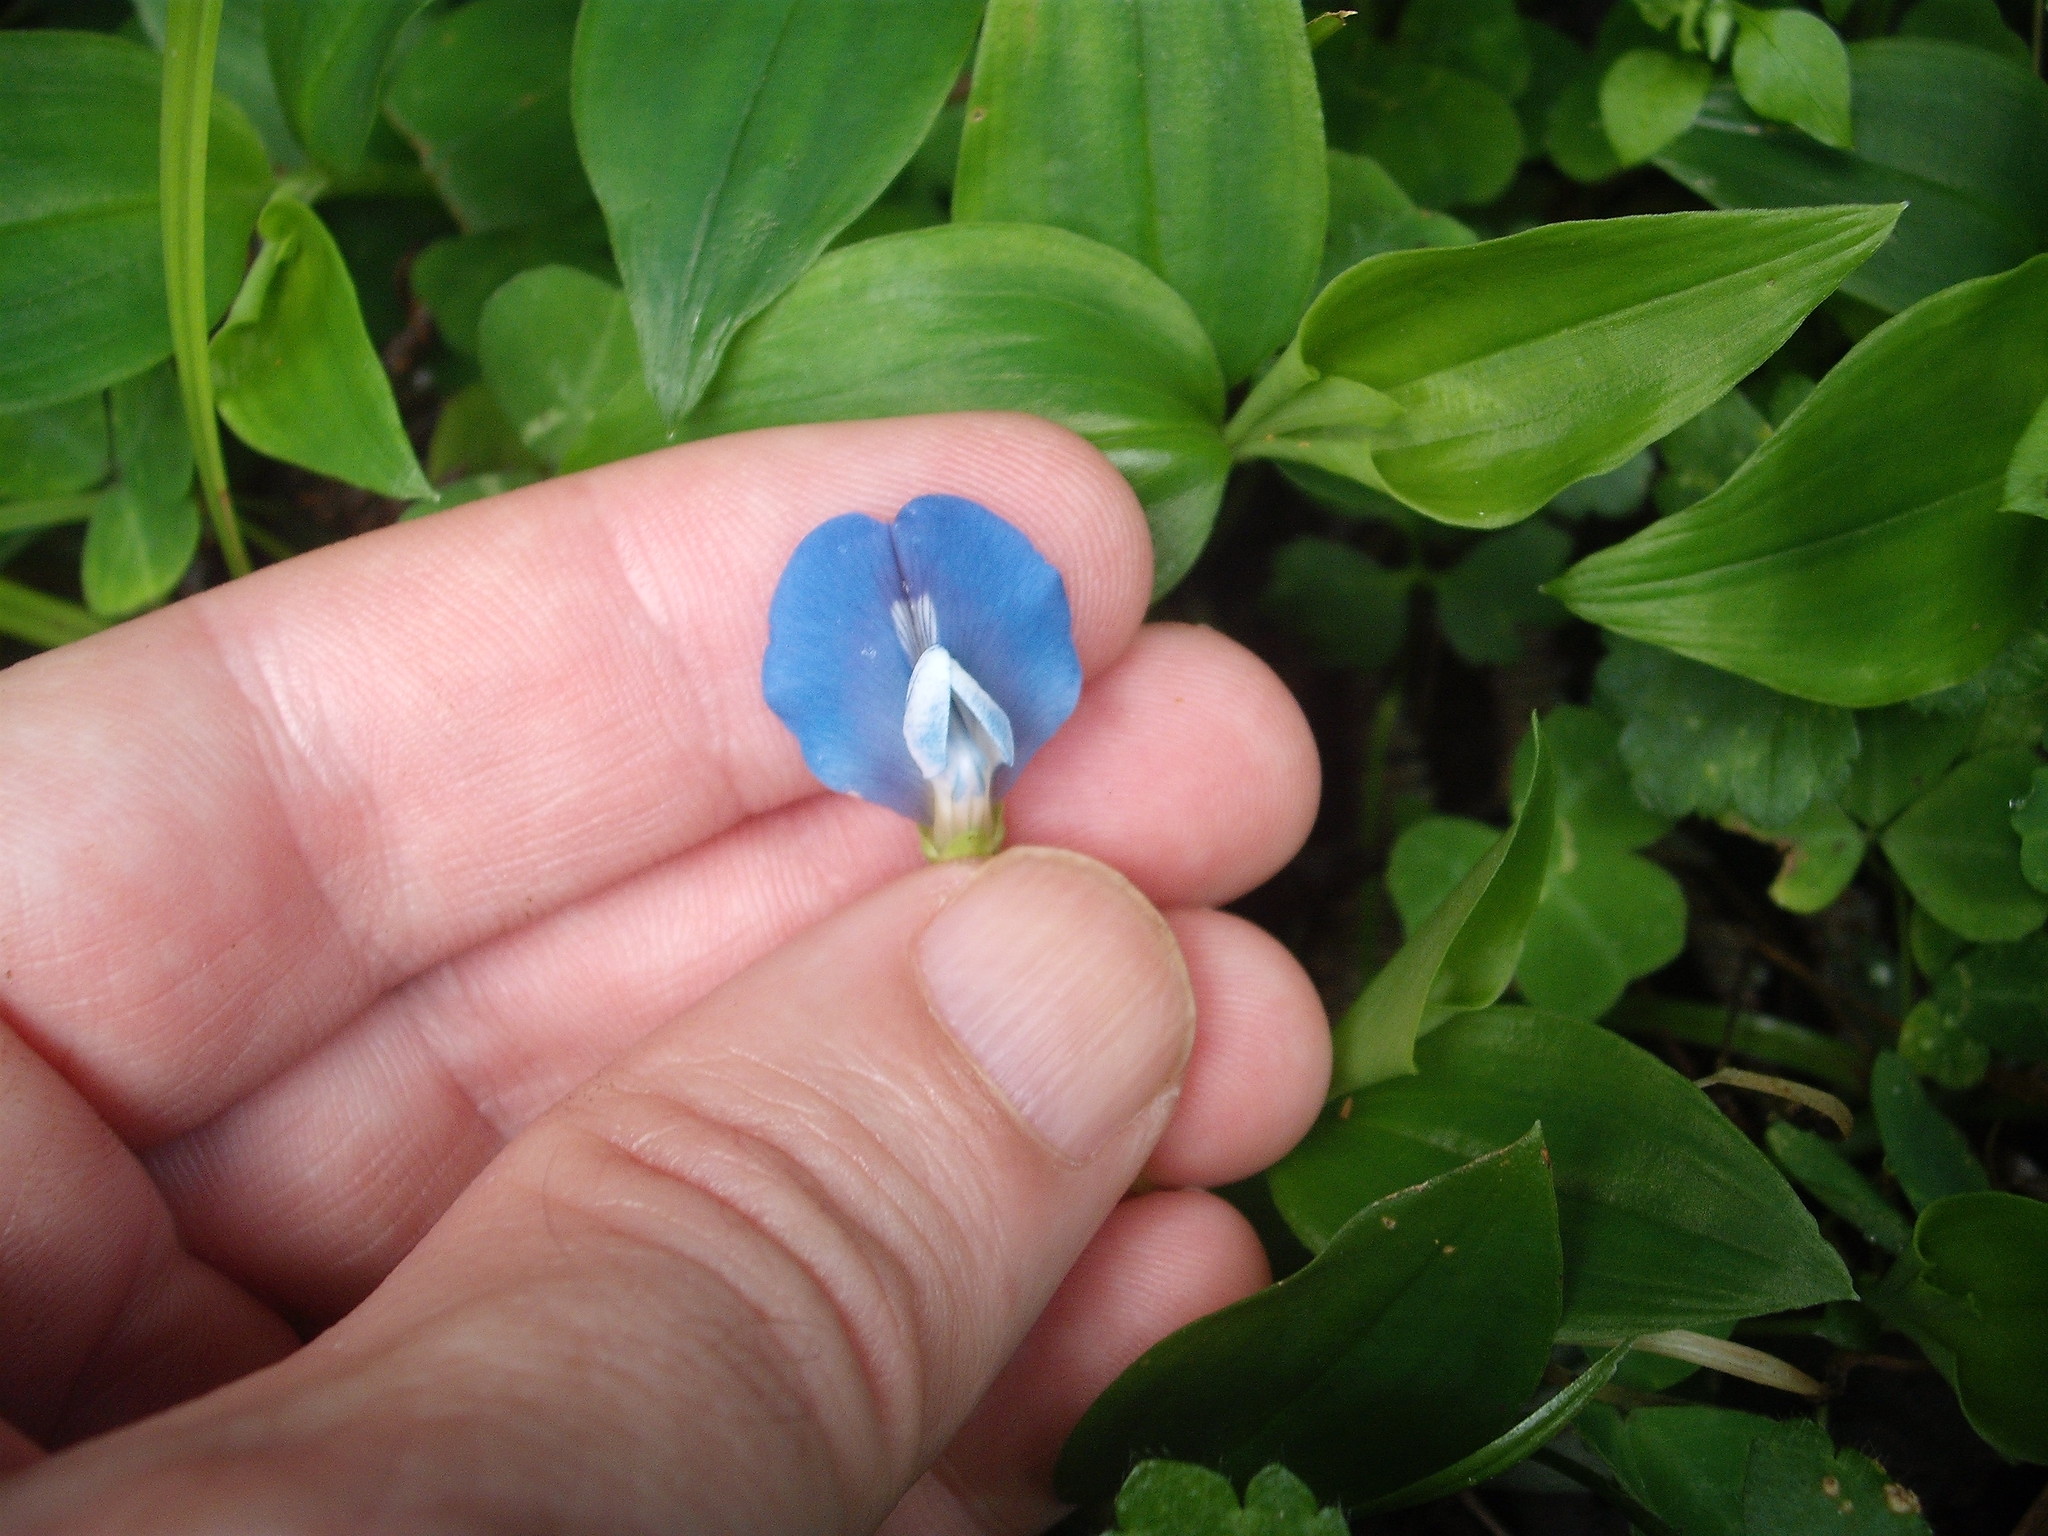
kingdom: Plantae
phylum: Tracheophyta
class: Magnoliopsida
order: Fabales
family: Fabaceae
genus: Parochetus
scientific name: Parochetus communis
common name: Blue oxalis
